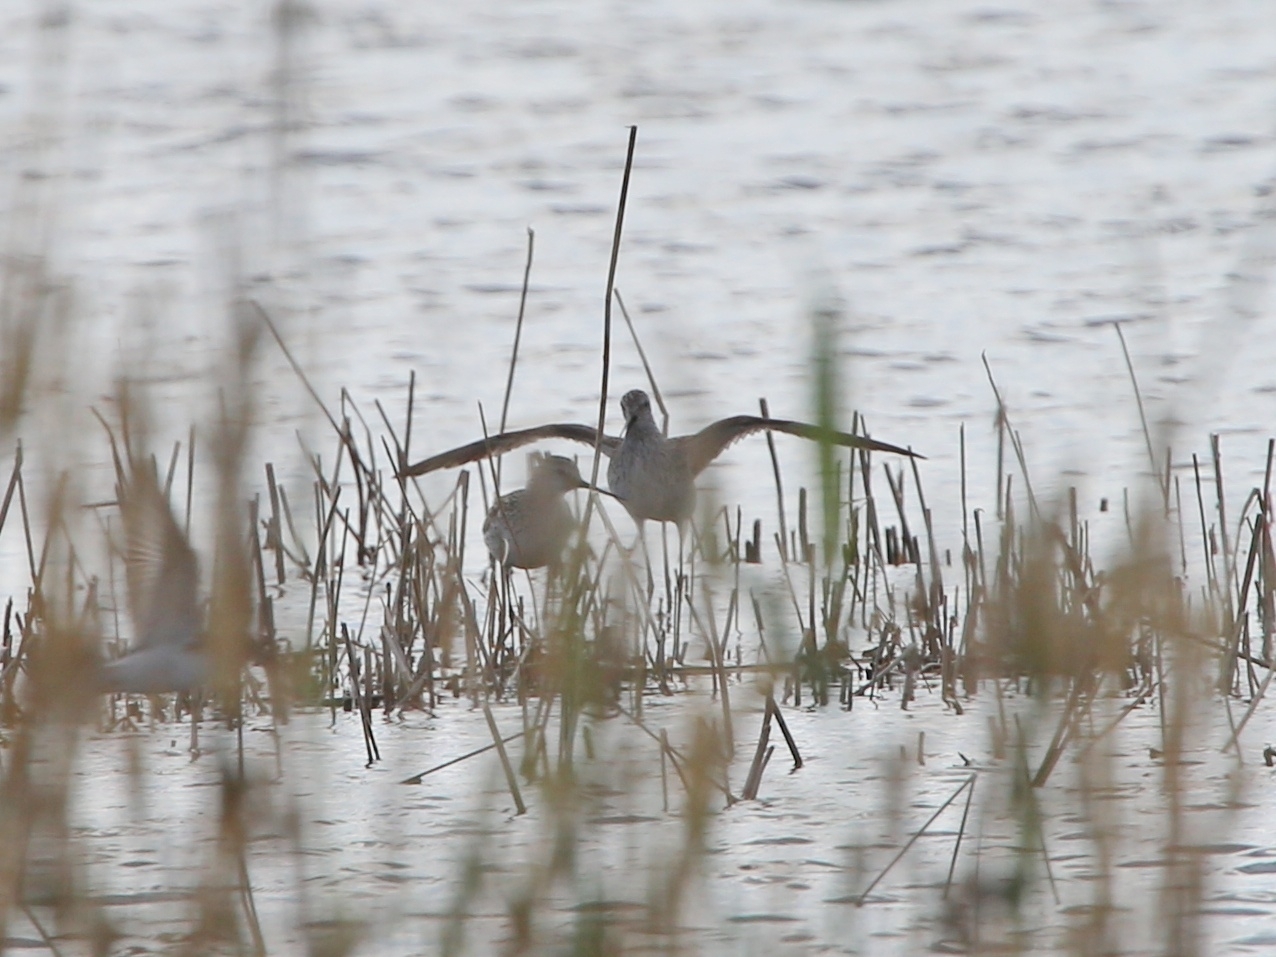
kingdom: Animalia
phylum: Chordata
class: Aves
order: Charadriiformes
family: Scolopacidae
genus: Tringa
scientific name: Tringa stagnatilis
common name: Marsh sandpiper
